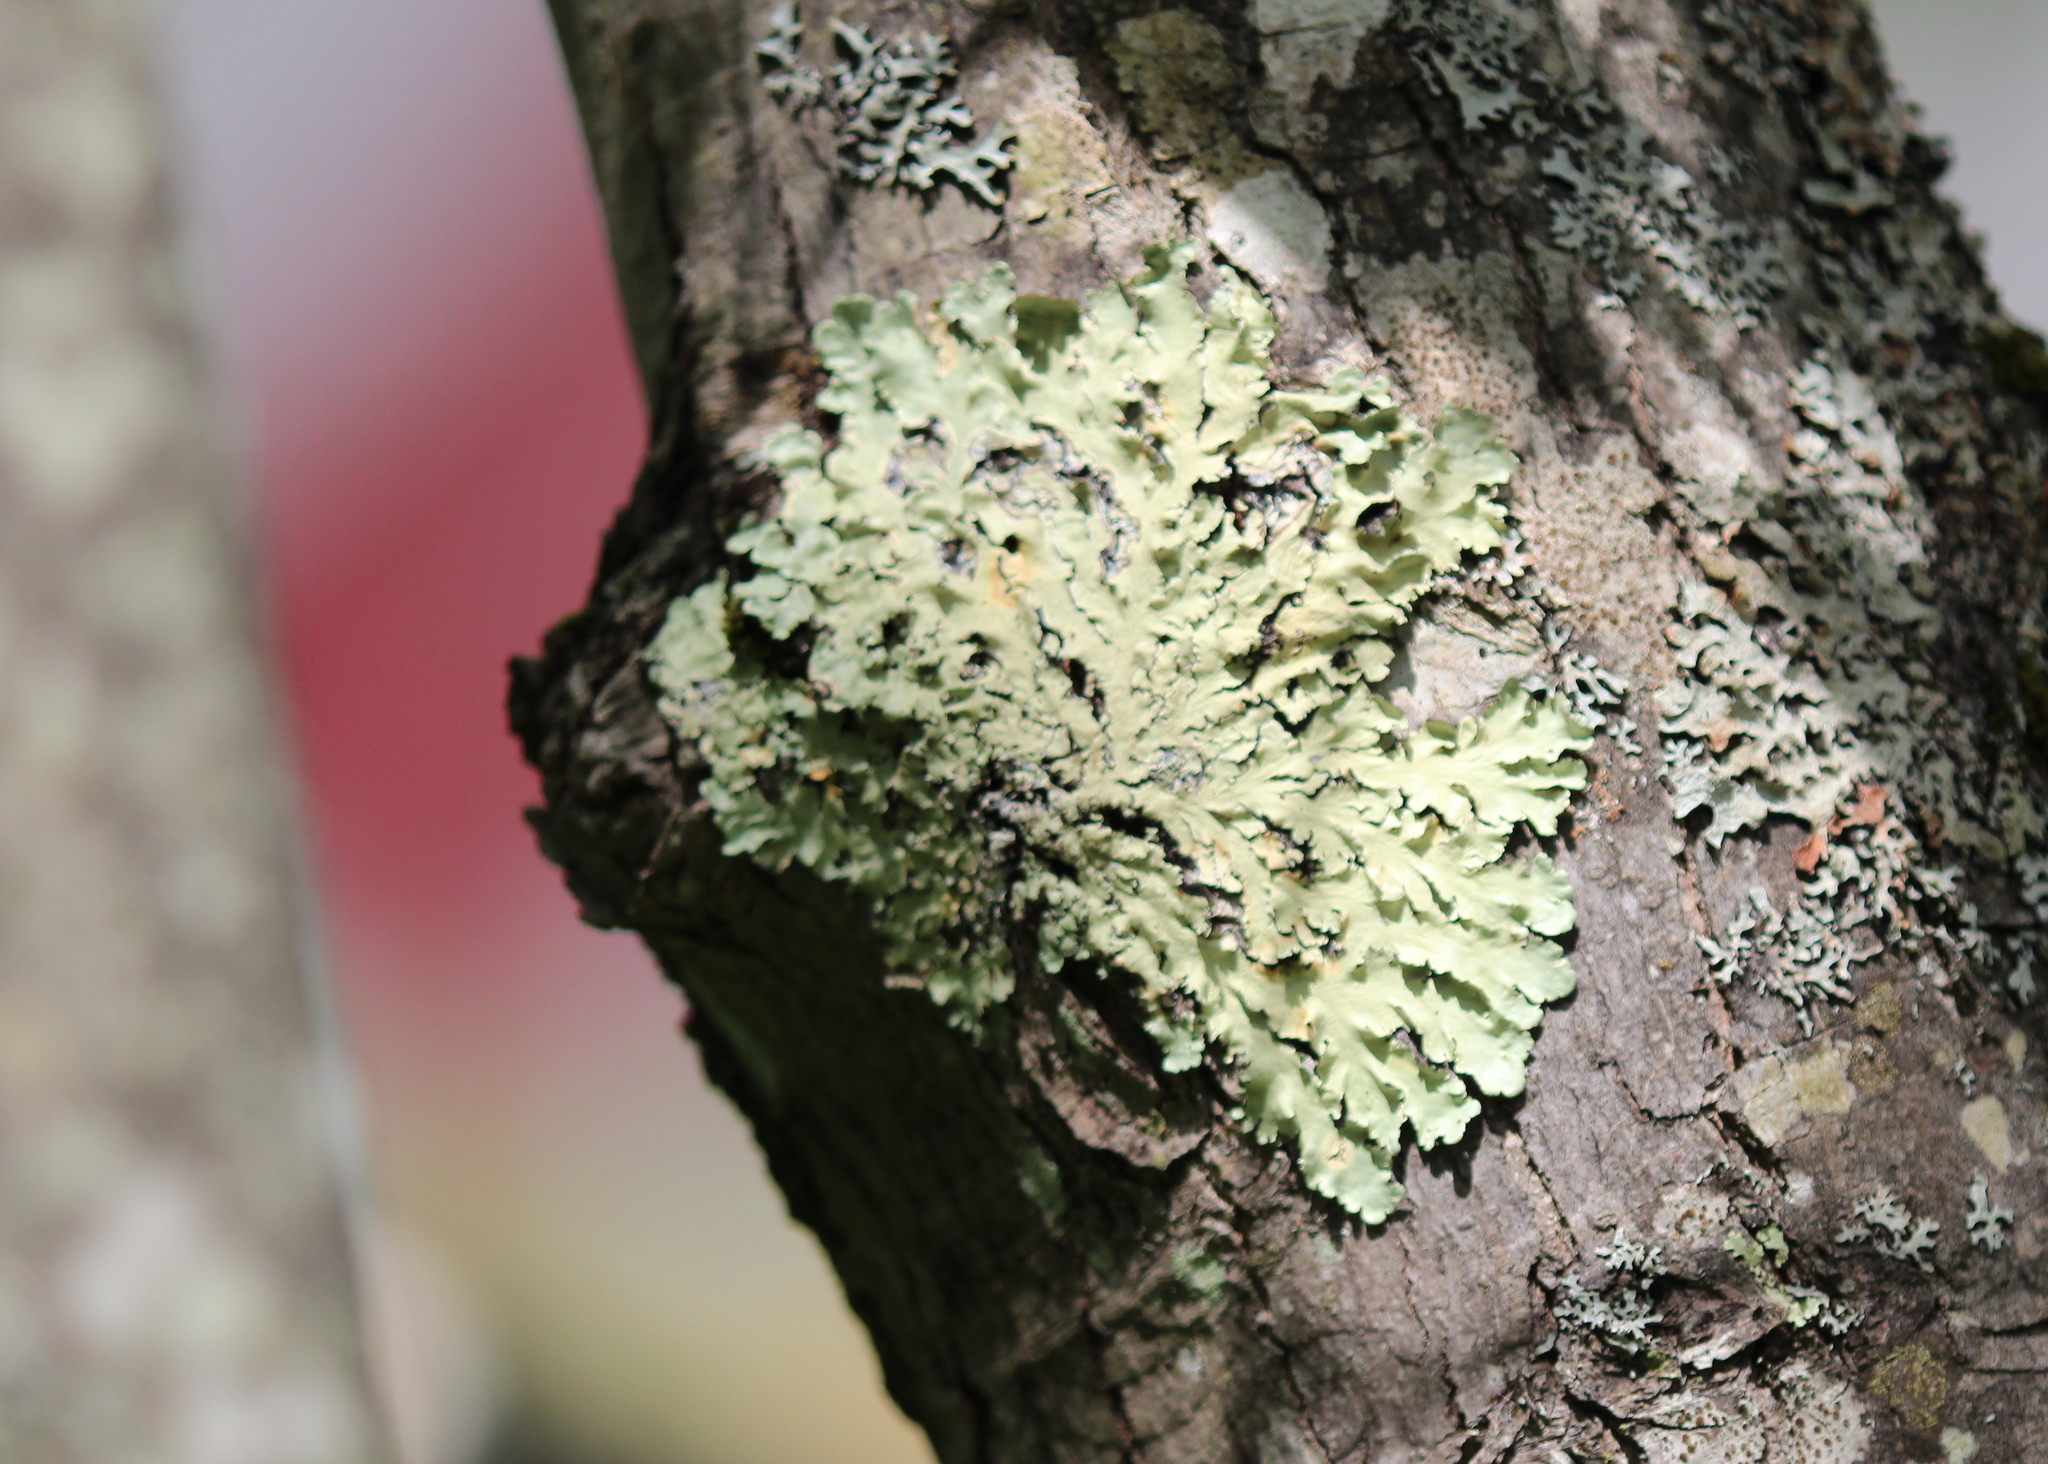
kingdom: Fungi
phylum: Ascomycota
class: Lecanoromycetes
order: Lecanorales
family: Parmeliaceae
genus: Flavoparmelia
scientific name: Flavoparmelia caperata
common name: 40-mile per hour lichen
